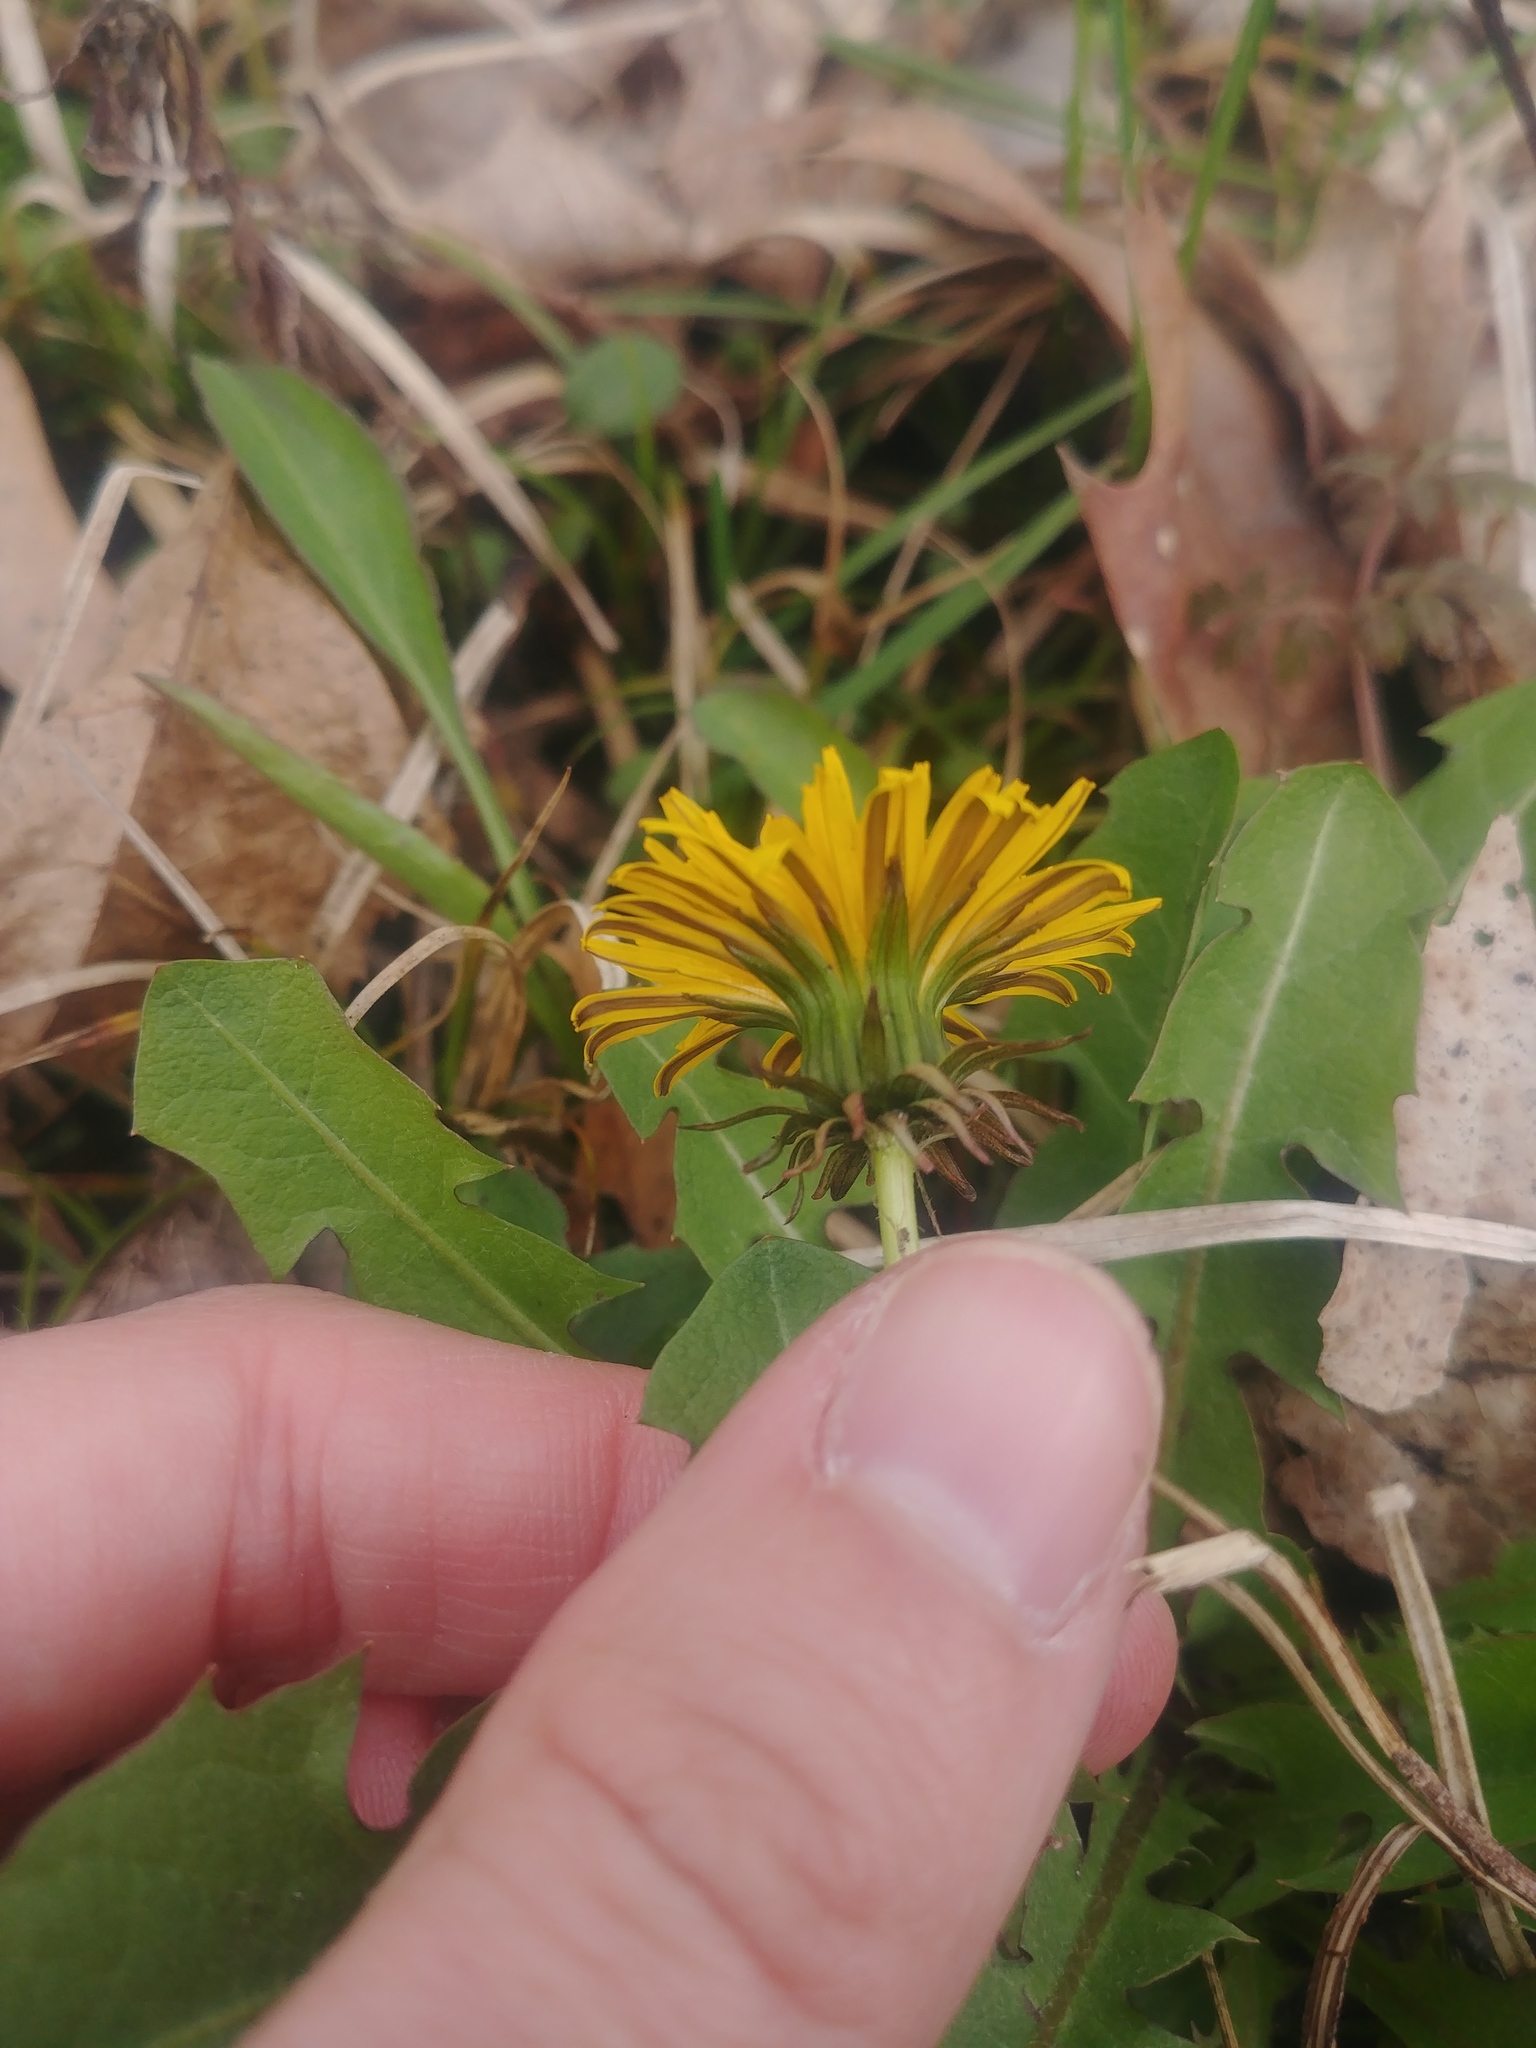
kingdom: Plantae
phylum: Tracheophyta
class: Magnoliopsida
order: Asterales
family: Asteraceae
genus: Taraxacum
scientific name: Taraxacum officinale
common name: Common dandelion
